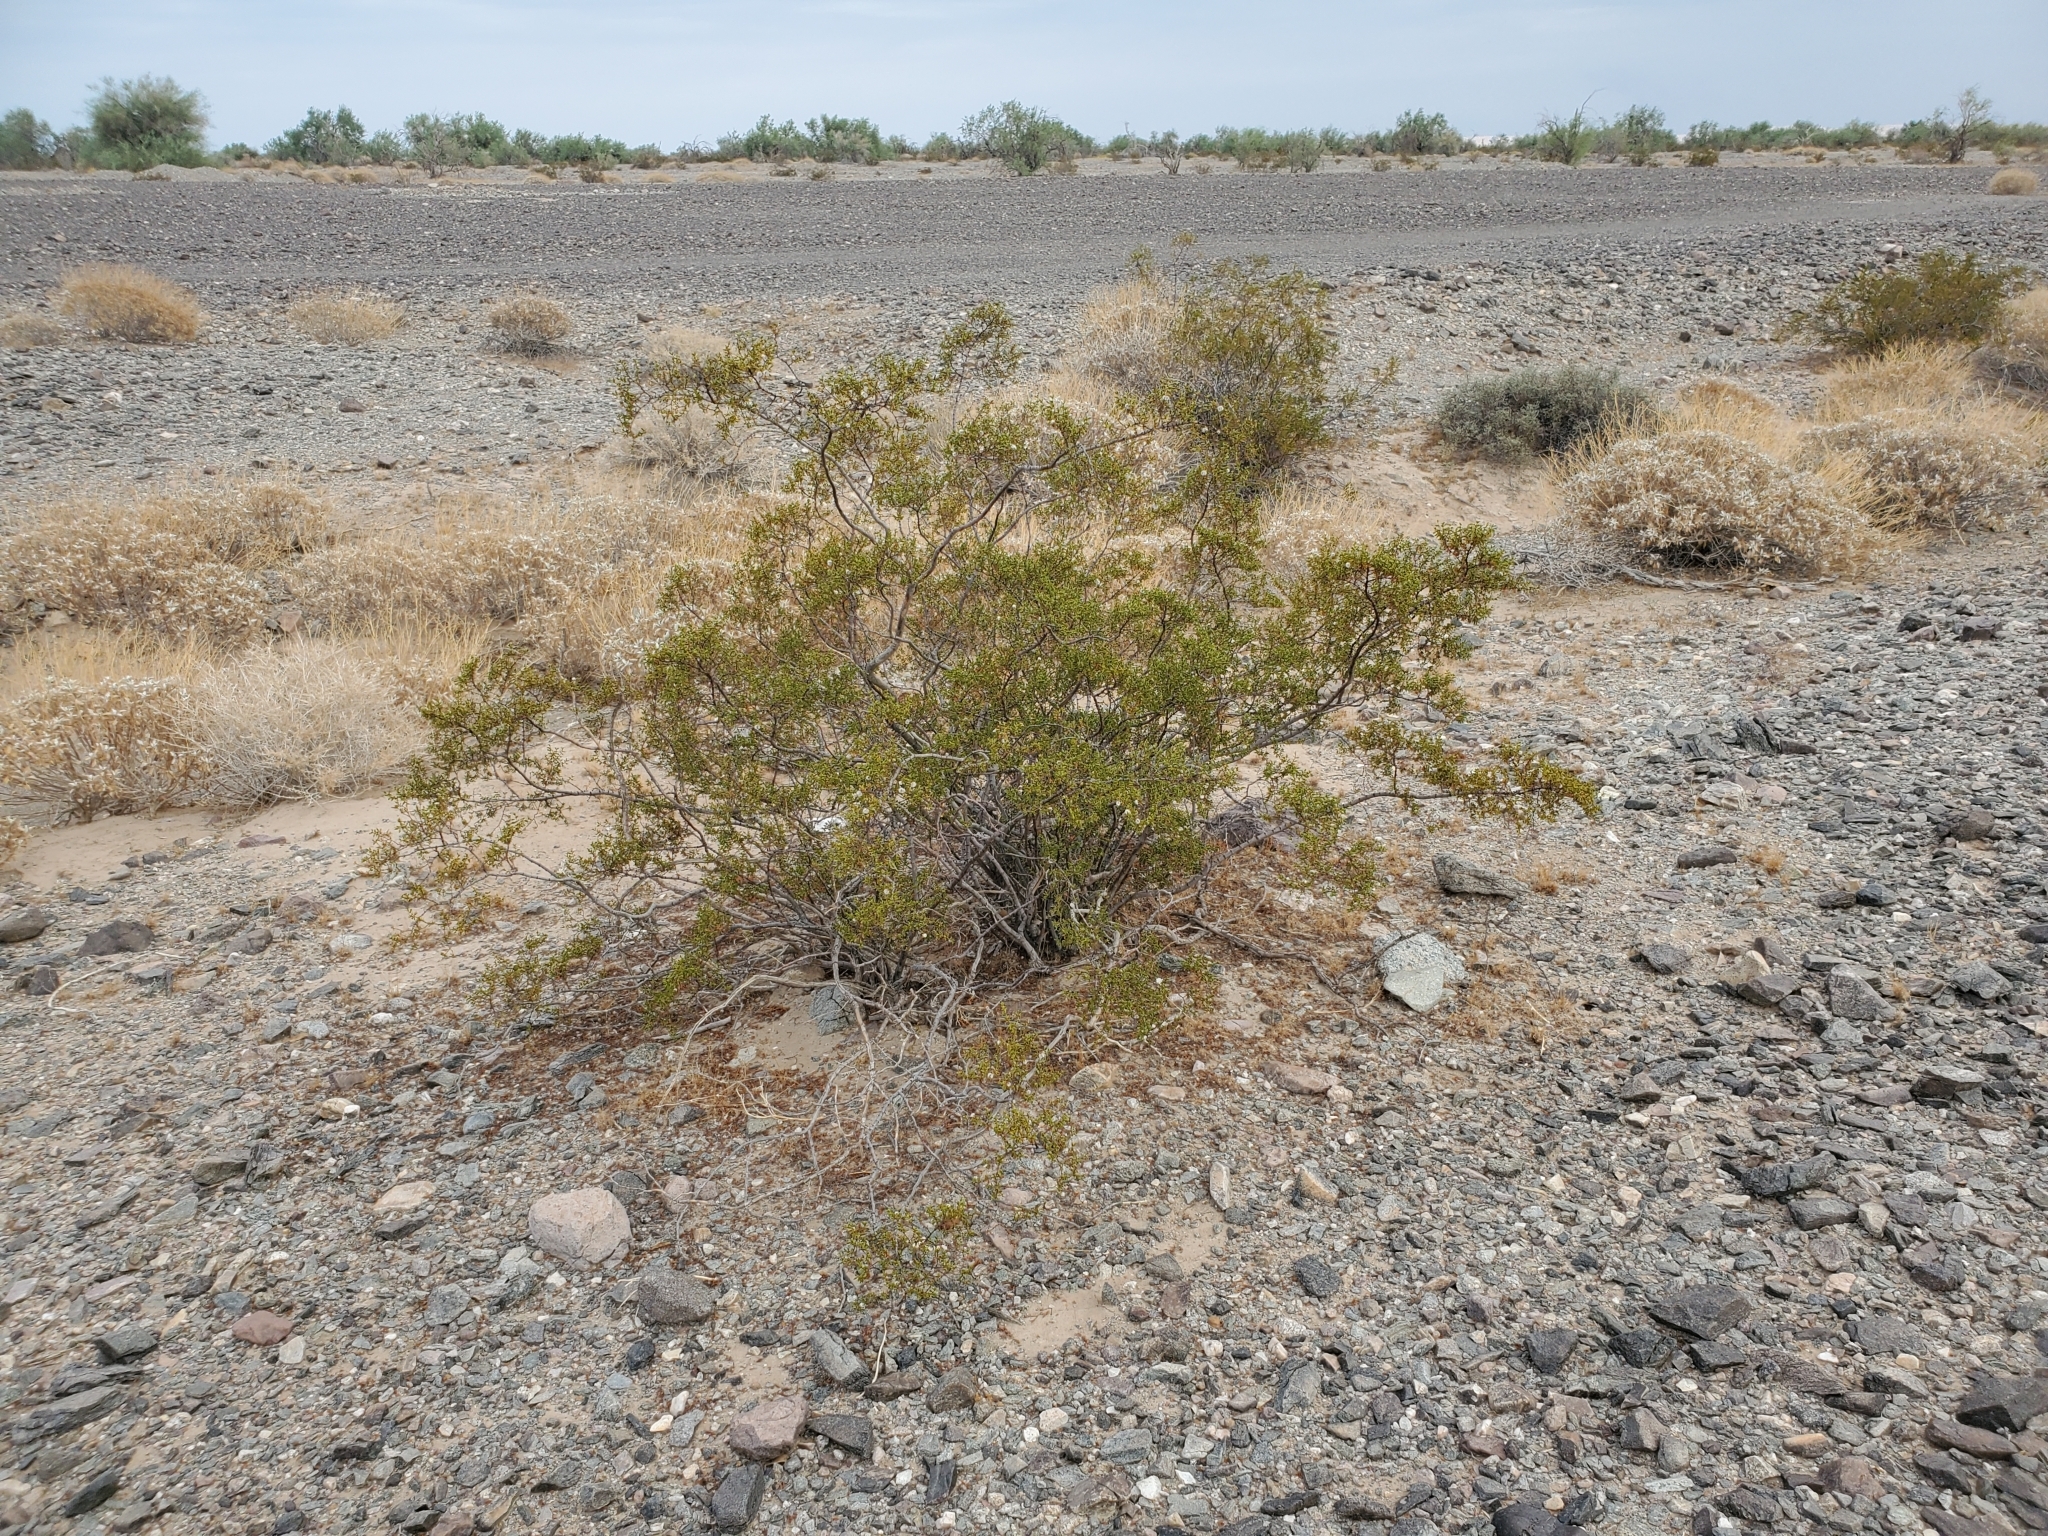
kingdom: Plantae
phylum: Tracheophyta
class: Magnoliopsida
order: Zygophyllales
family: Zygophyllaceae
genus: Larrea
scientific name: Larrea tridentata
